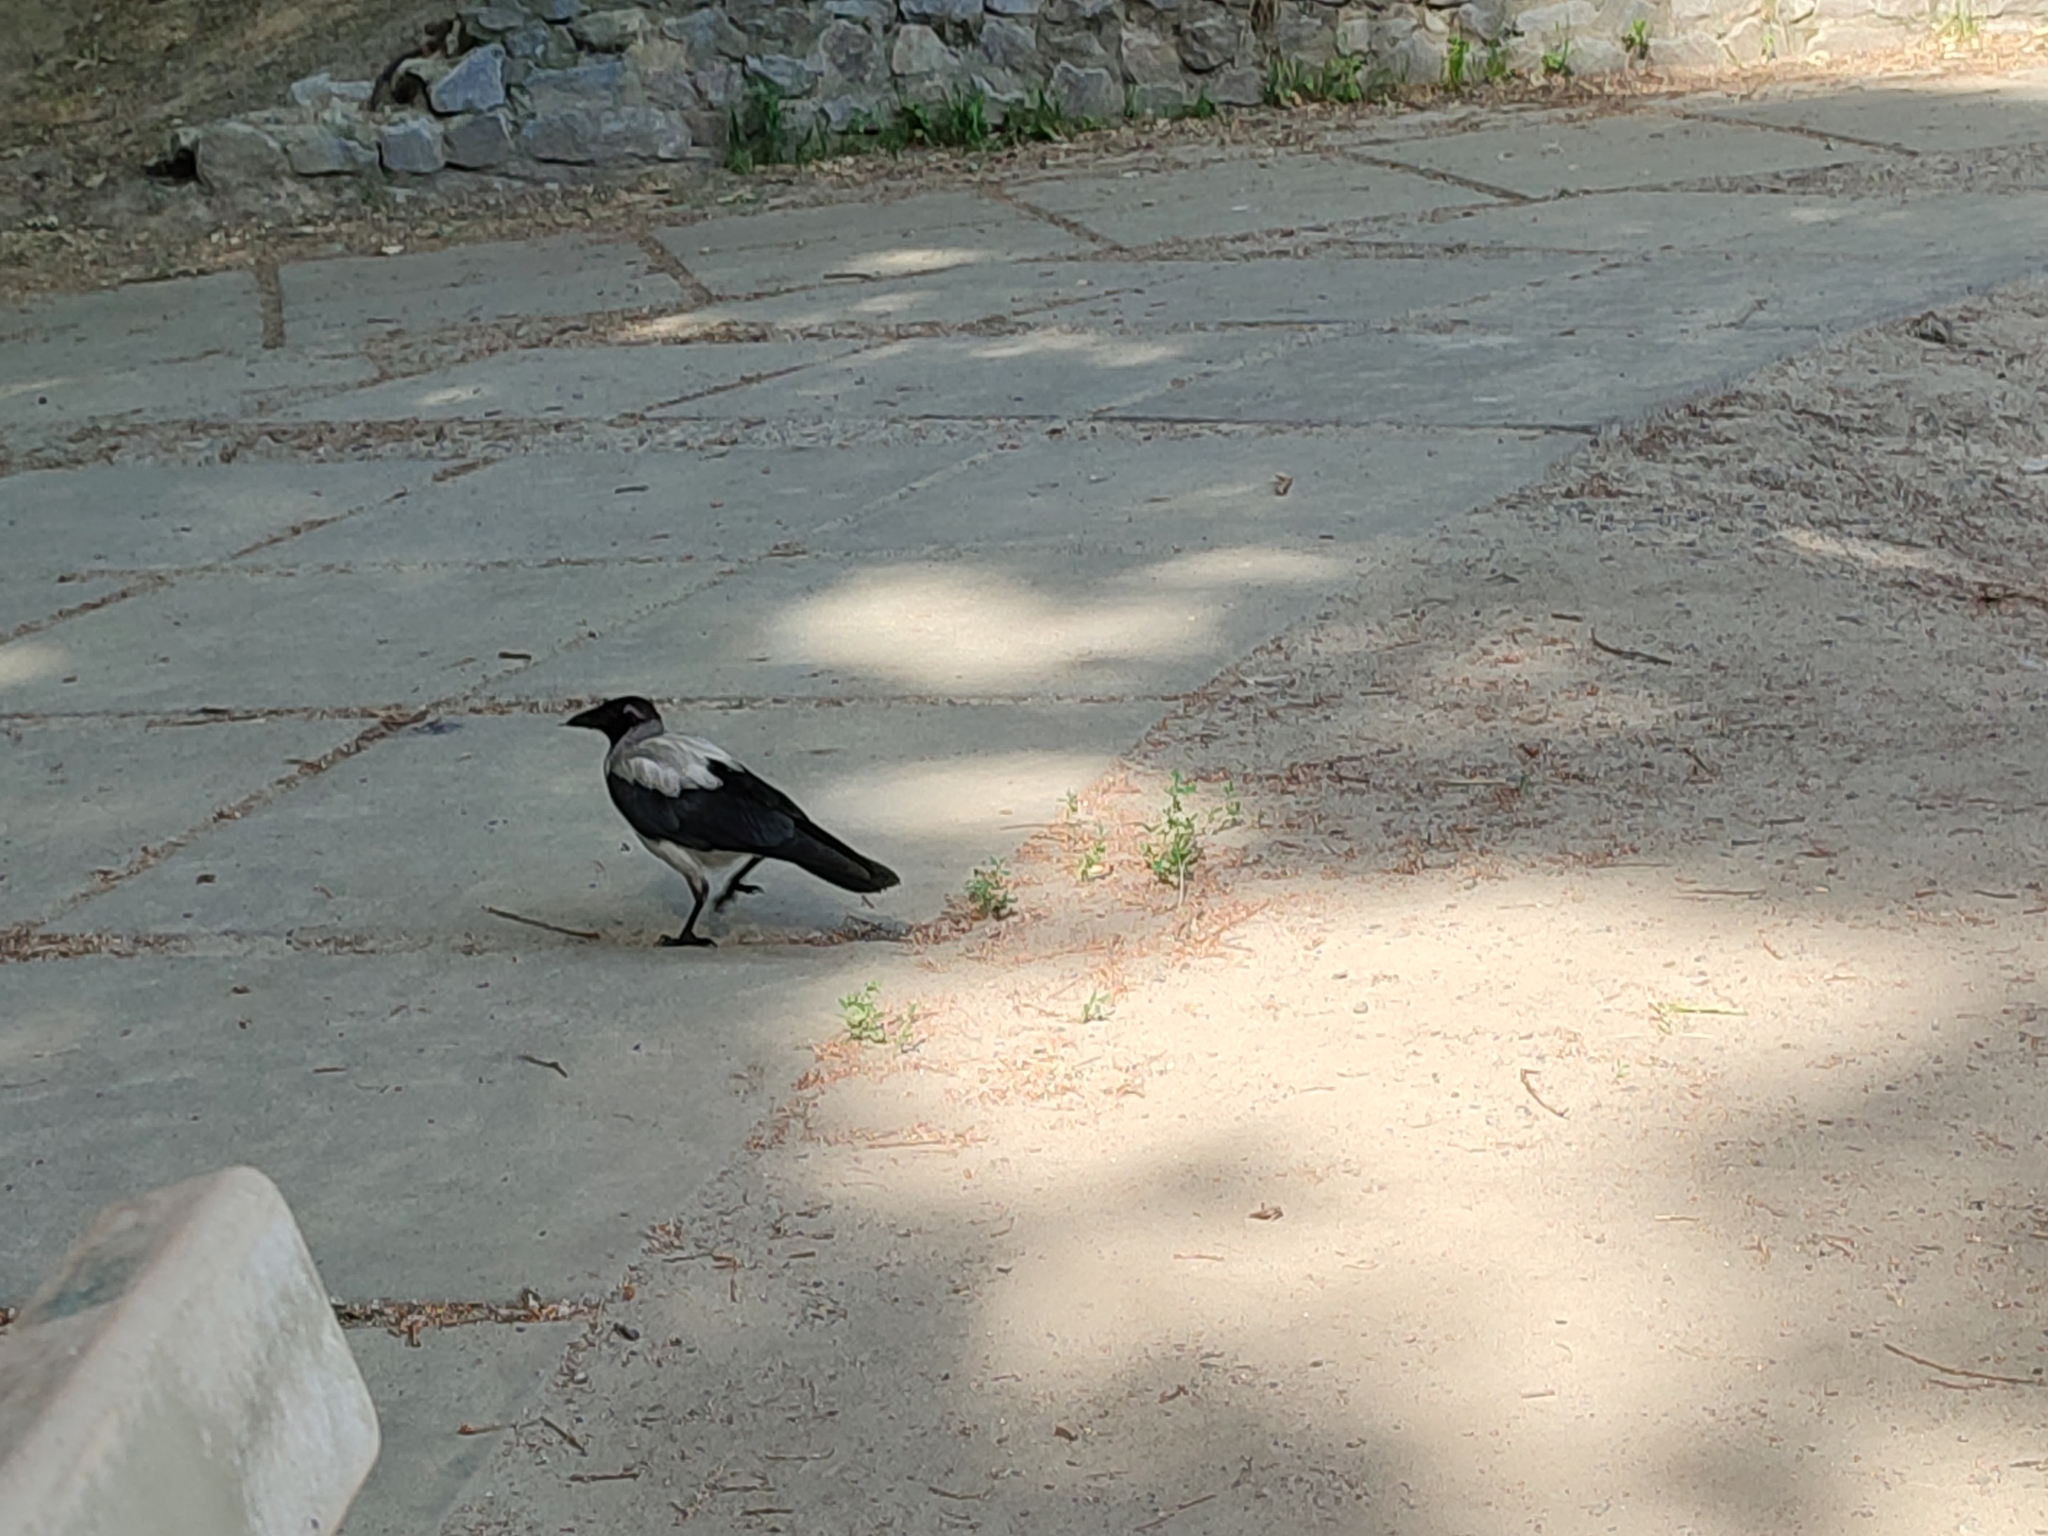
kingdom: Animalia
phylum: Chordata
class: Aves
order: Passeriformes
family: Corvidae
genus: Corvus
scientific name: Corvus cornix
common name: Hooded crow
